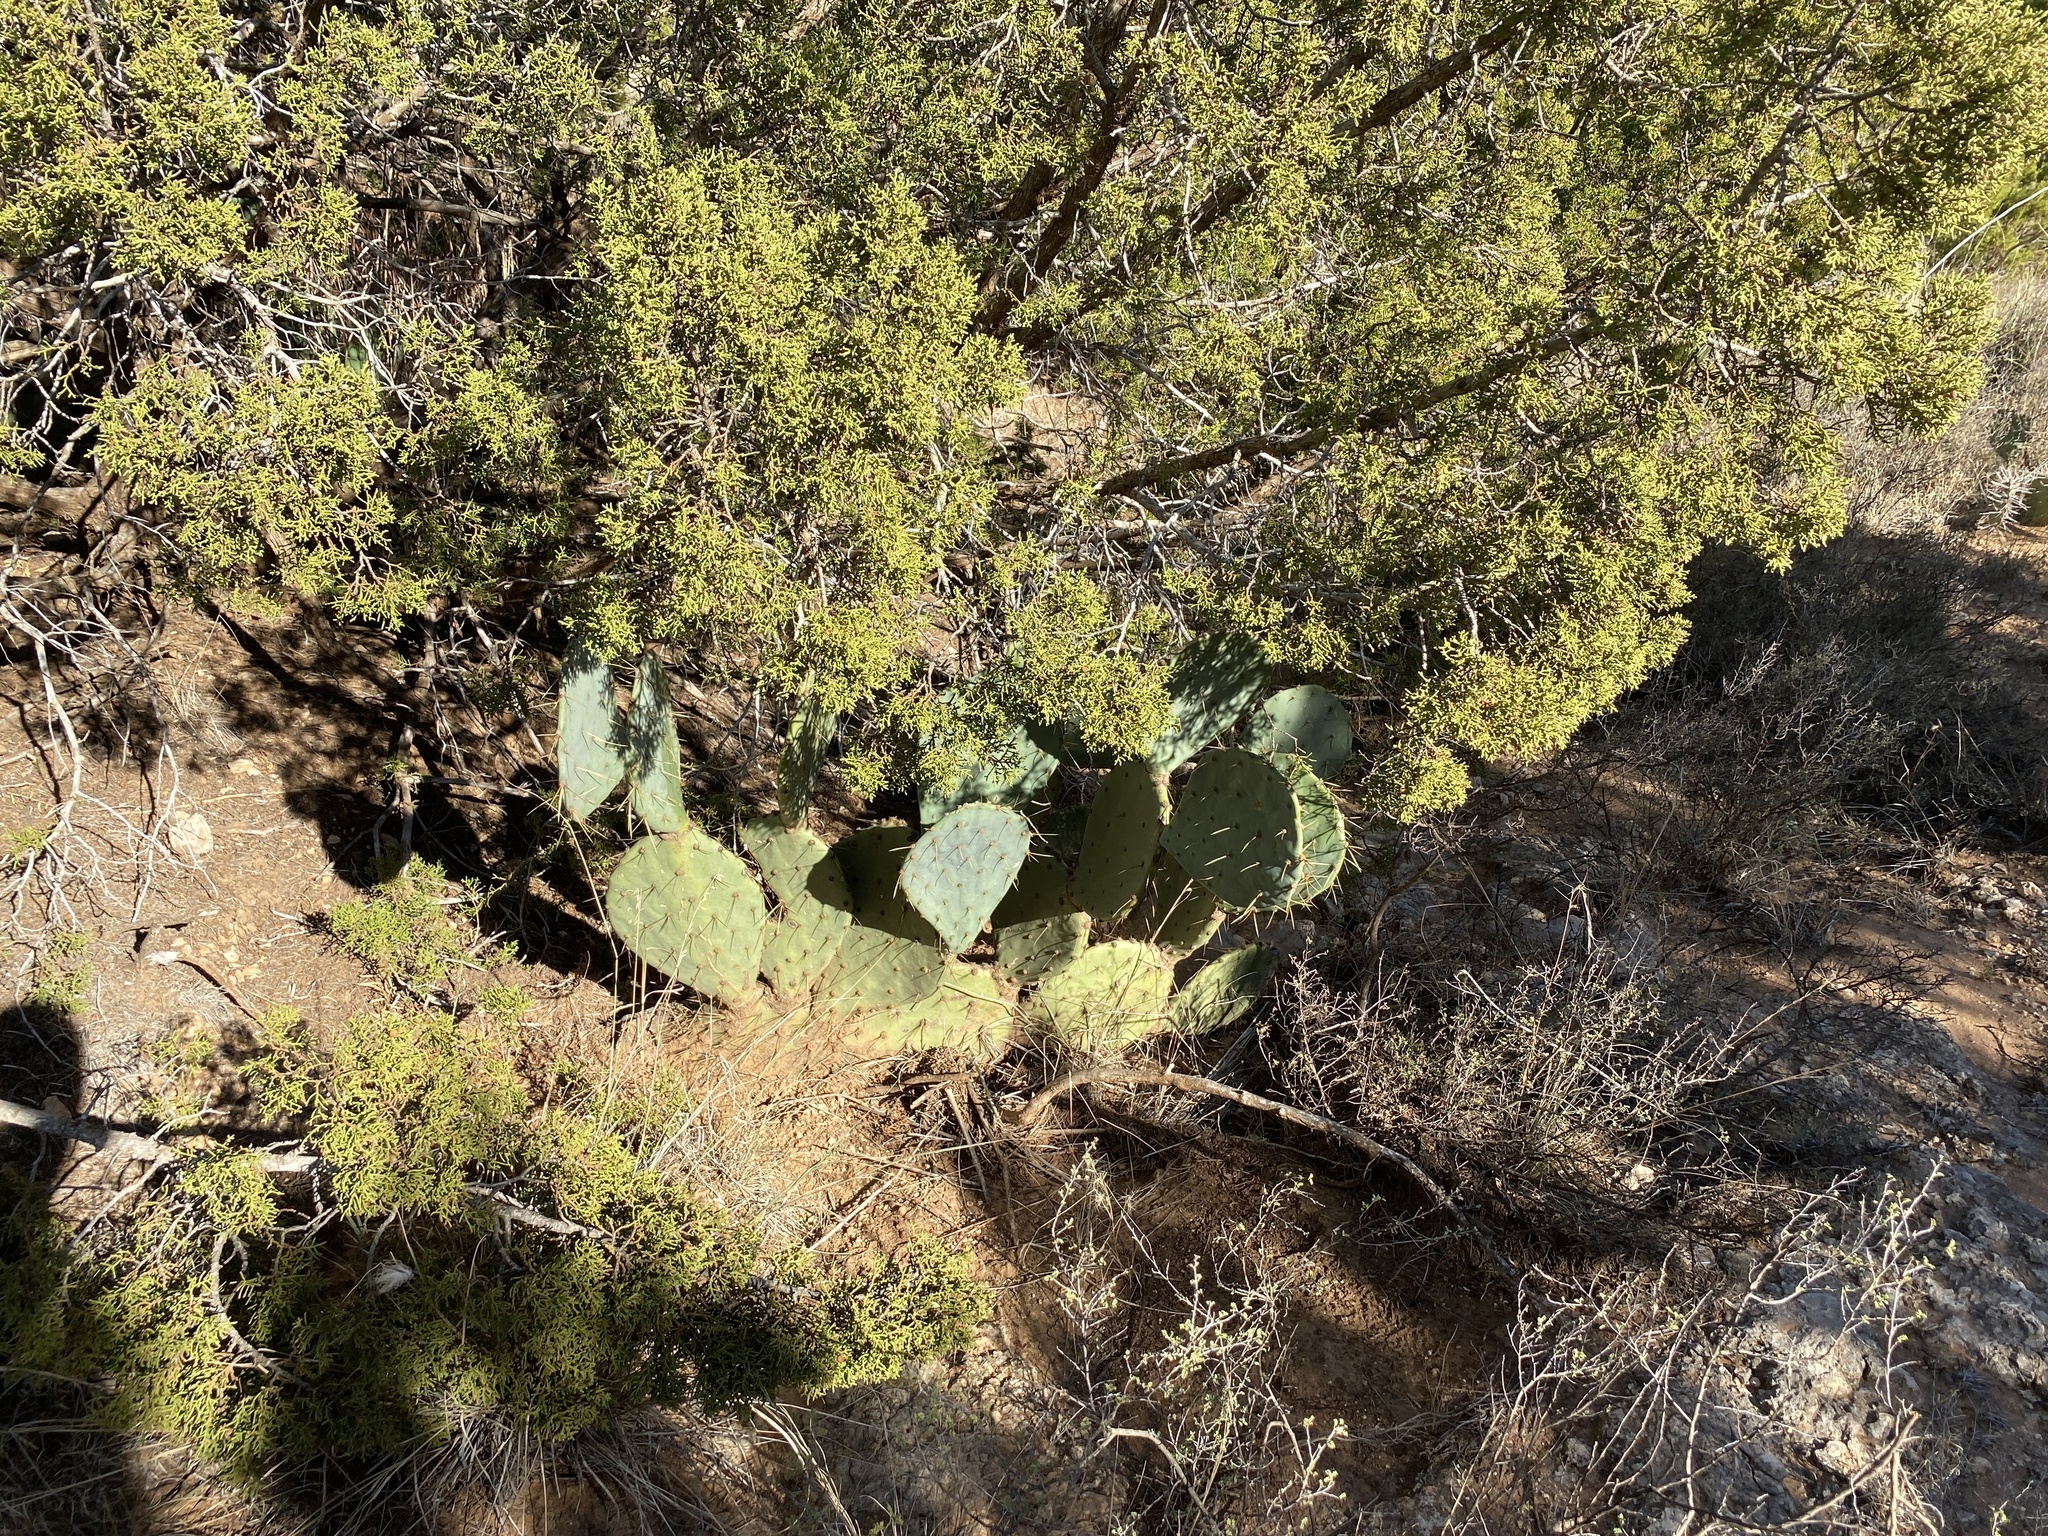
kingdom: Plantae
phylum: Tracheophyta
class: Magnoliopsida
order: Caryophyllales
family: Cactaceae
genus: Opuntia
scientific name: Opuntia engelmannii
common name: Cactus-apple
